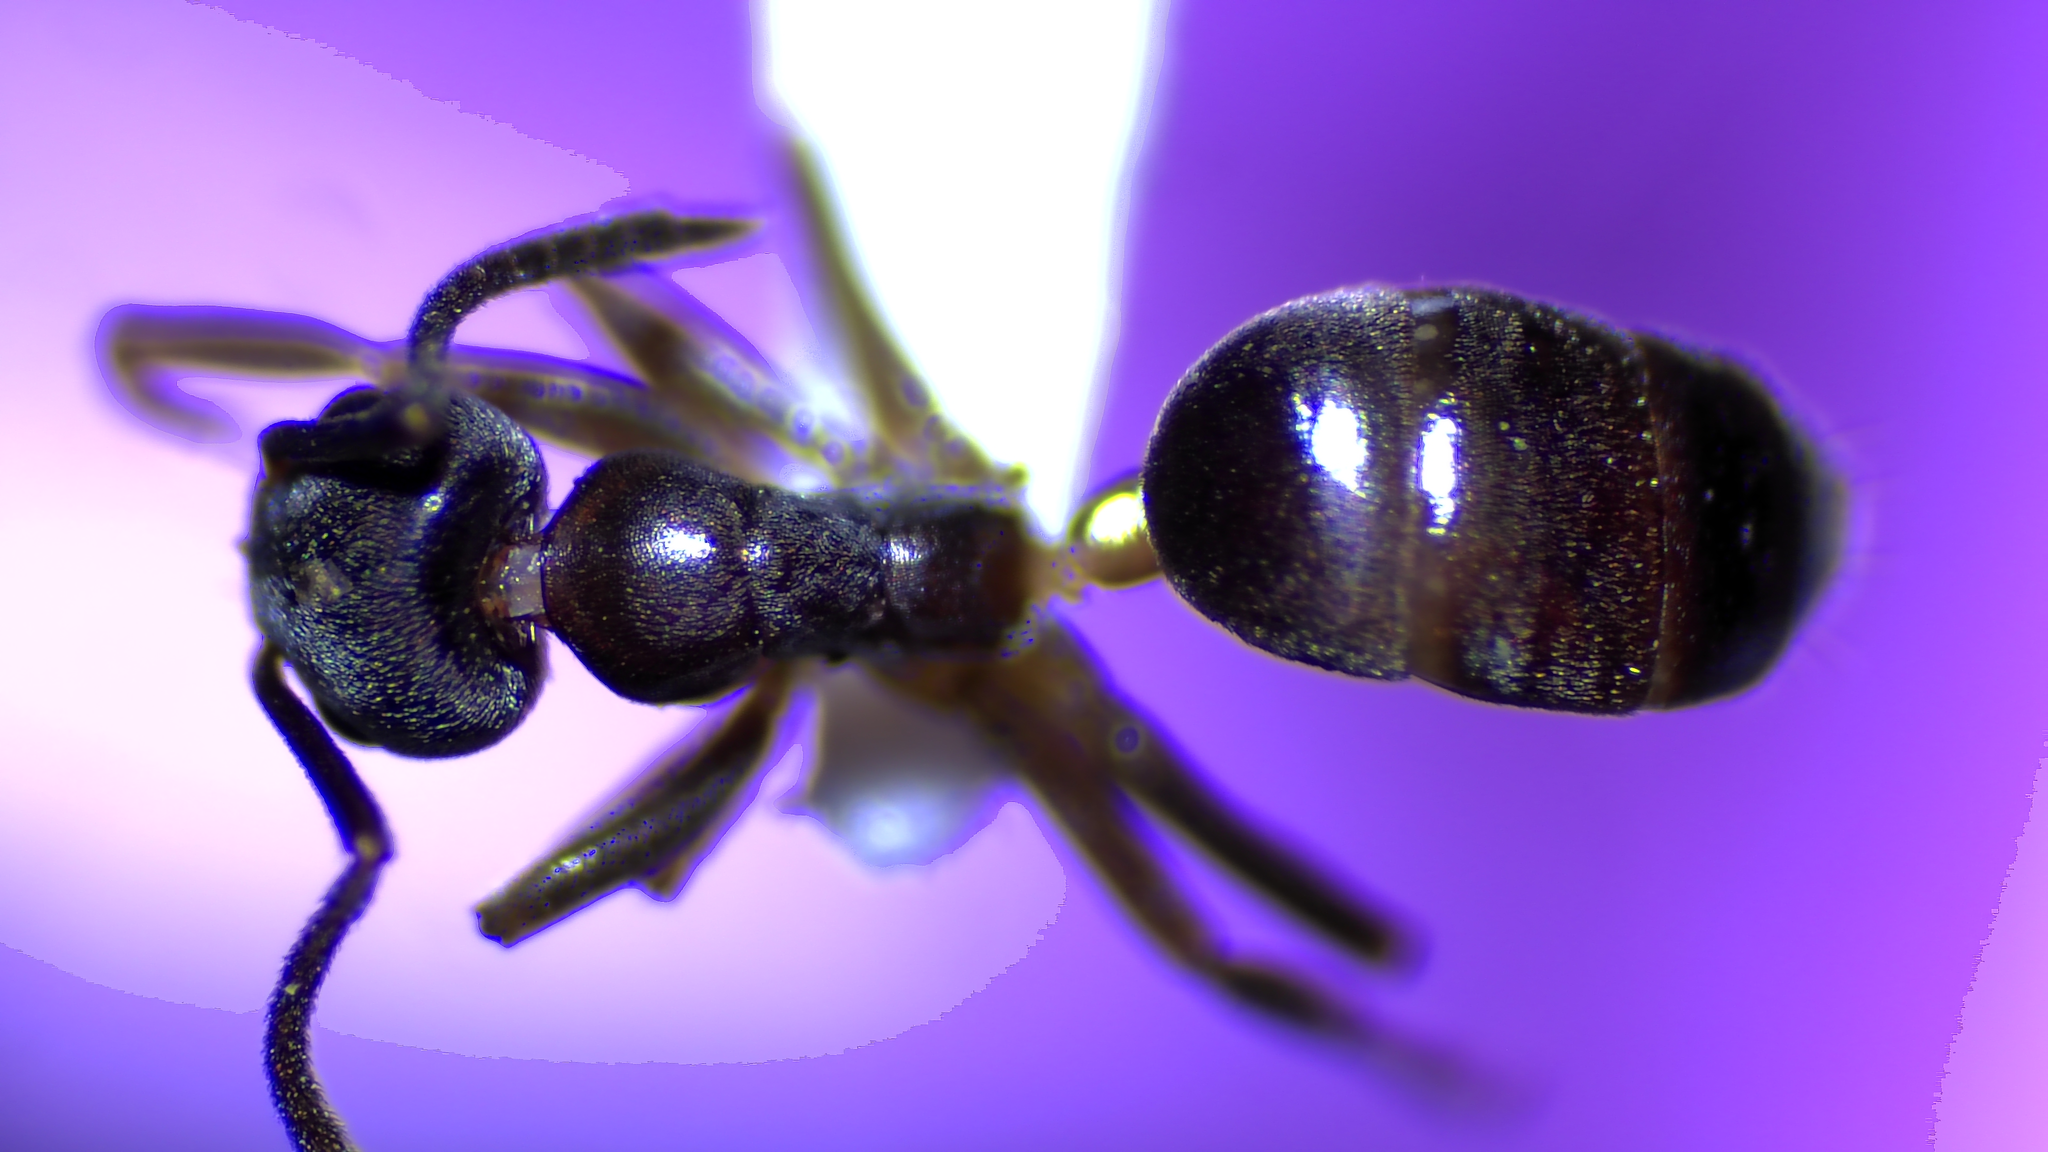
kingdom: Animalia
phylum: Arthropoda
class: Insecta
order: Hymenoptera
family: Formicidae
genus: Tapinoma
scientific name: Tapinoma sessile
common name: Odorous house ant
